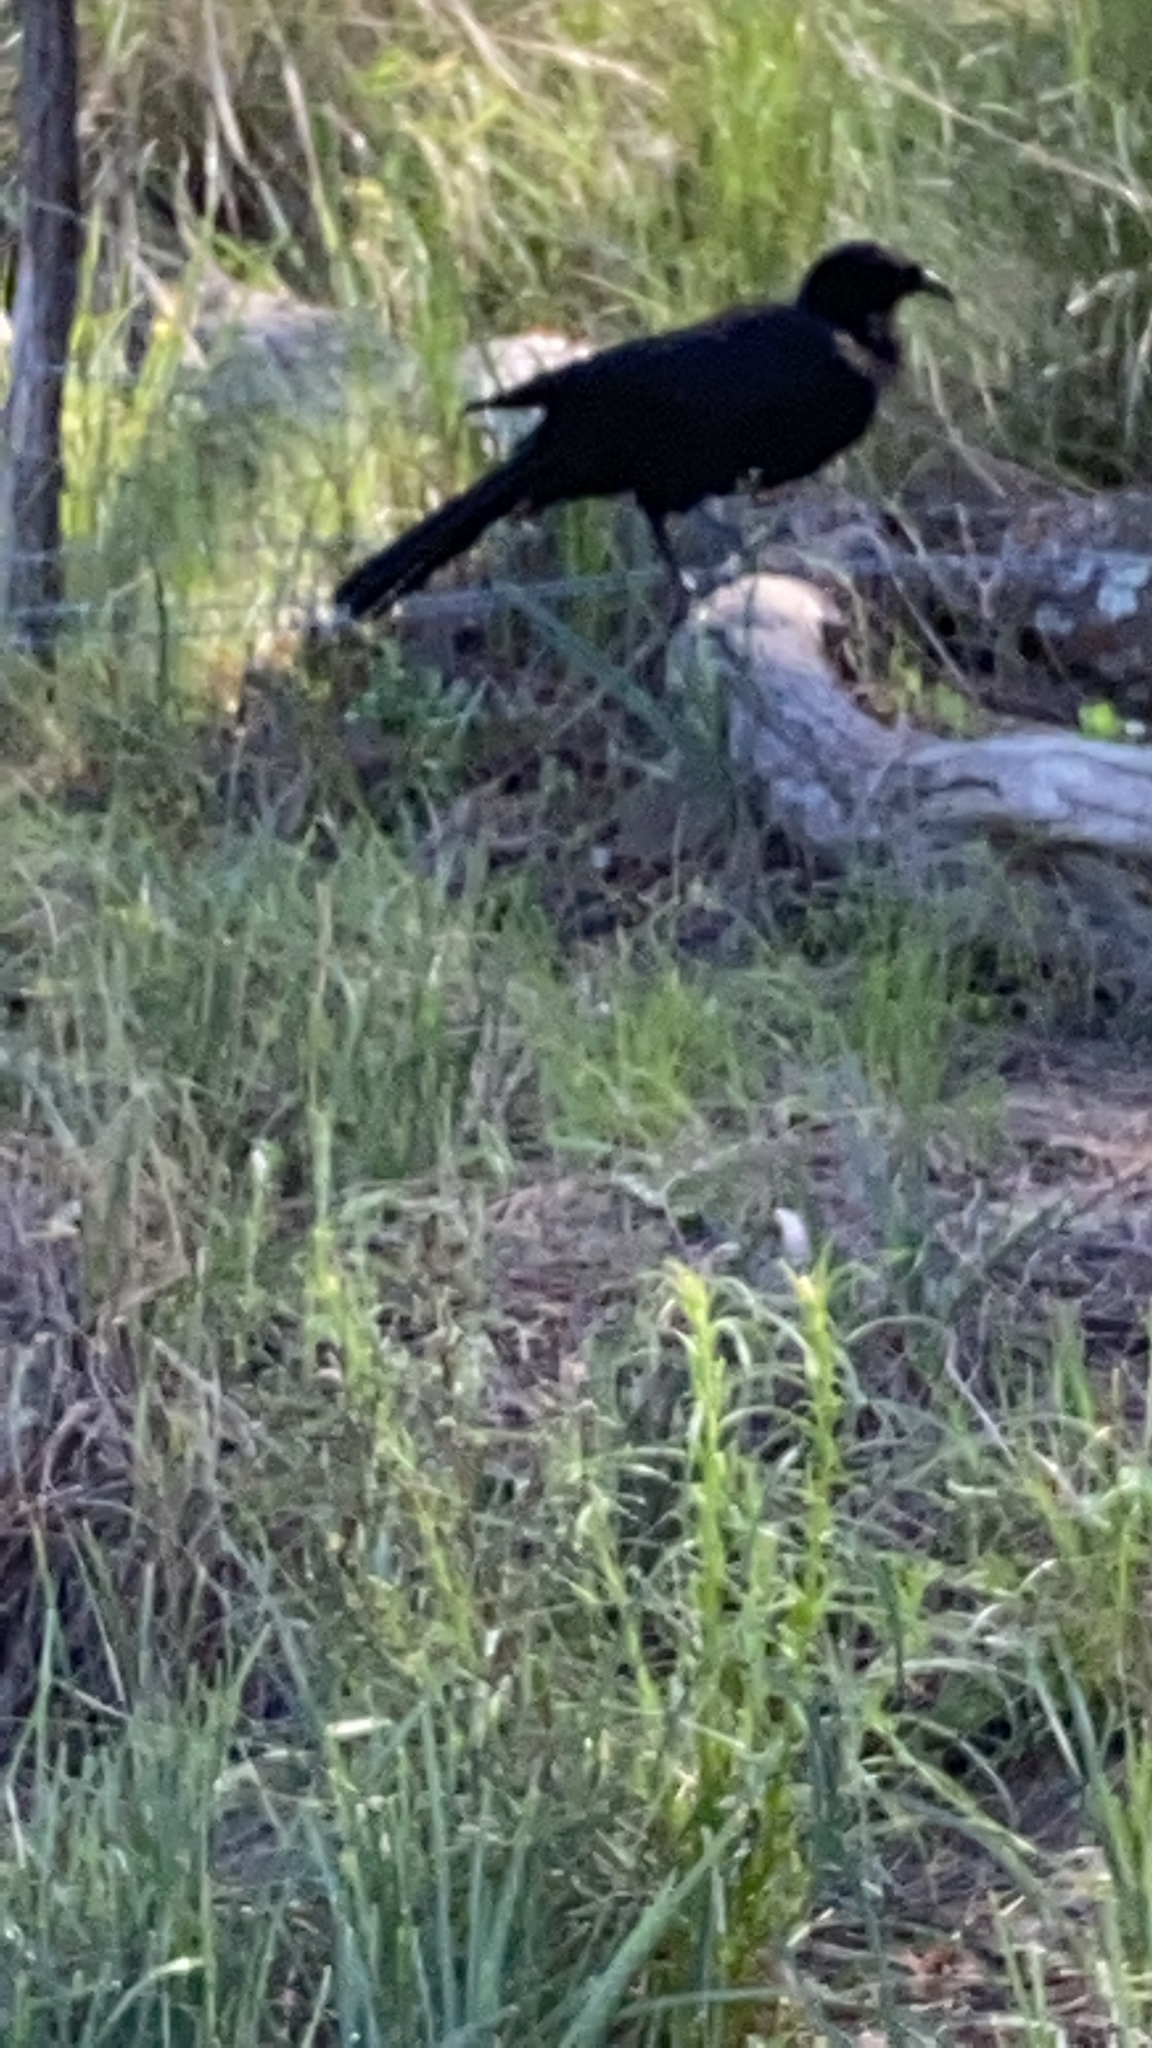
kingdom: Animalia
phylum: Chordata
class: Aves
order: Passeriformes
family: Corcoracidae
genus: Corcorax
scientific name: Corcorax melanoramphos
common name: White-winged chough
